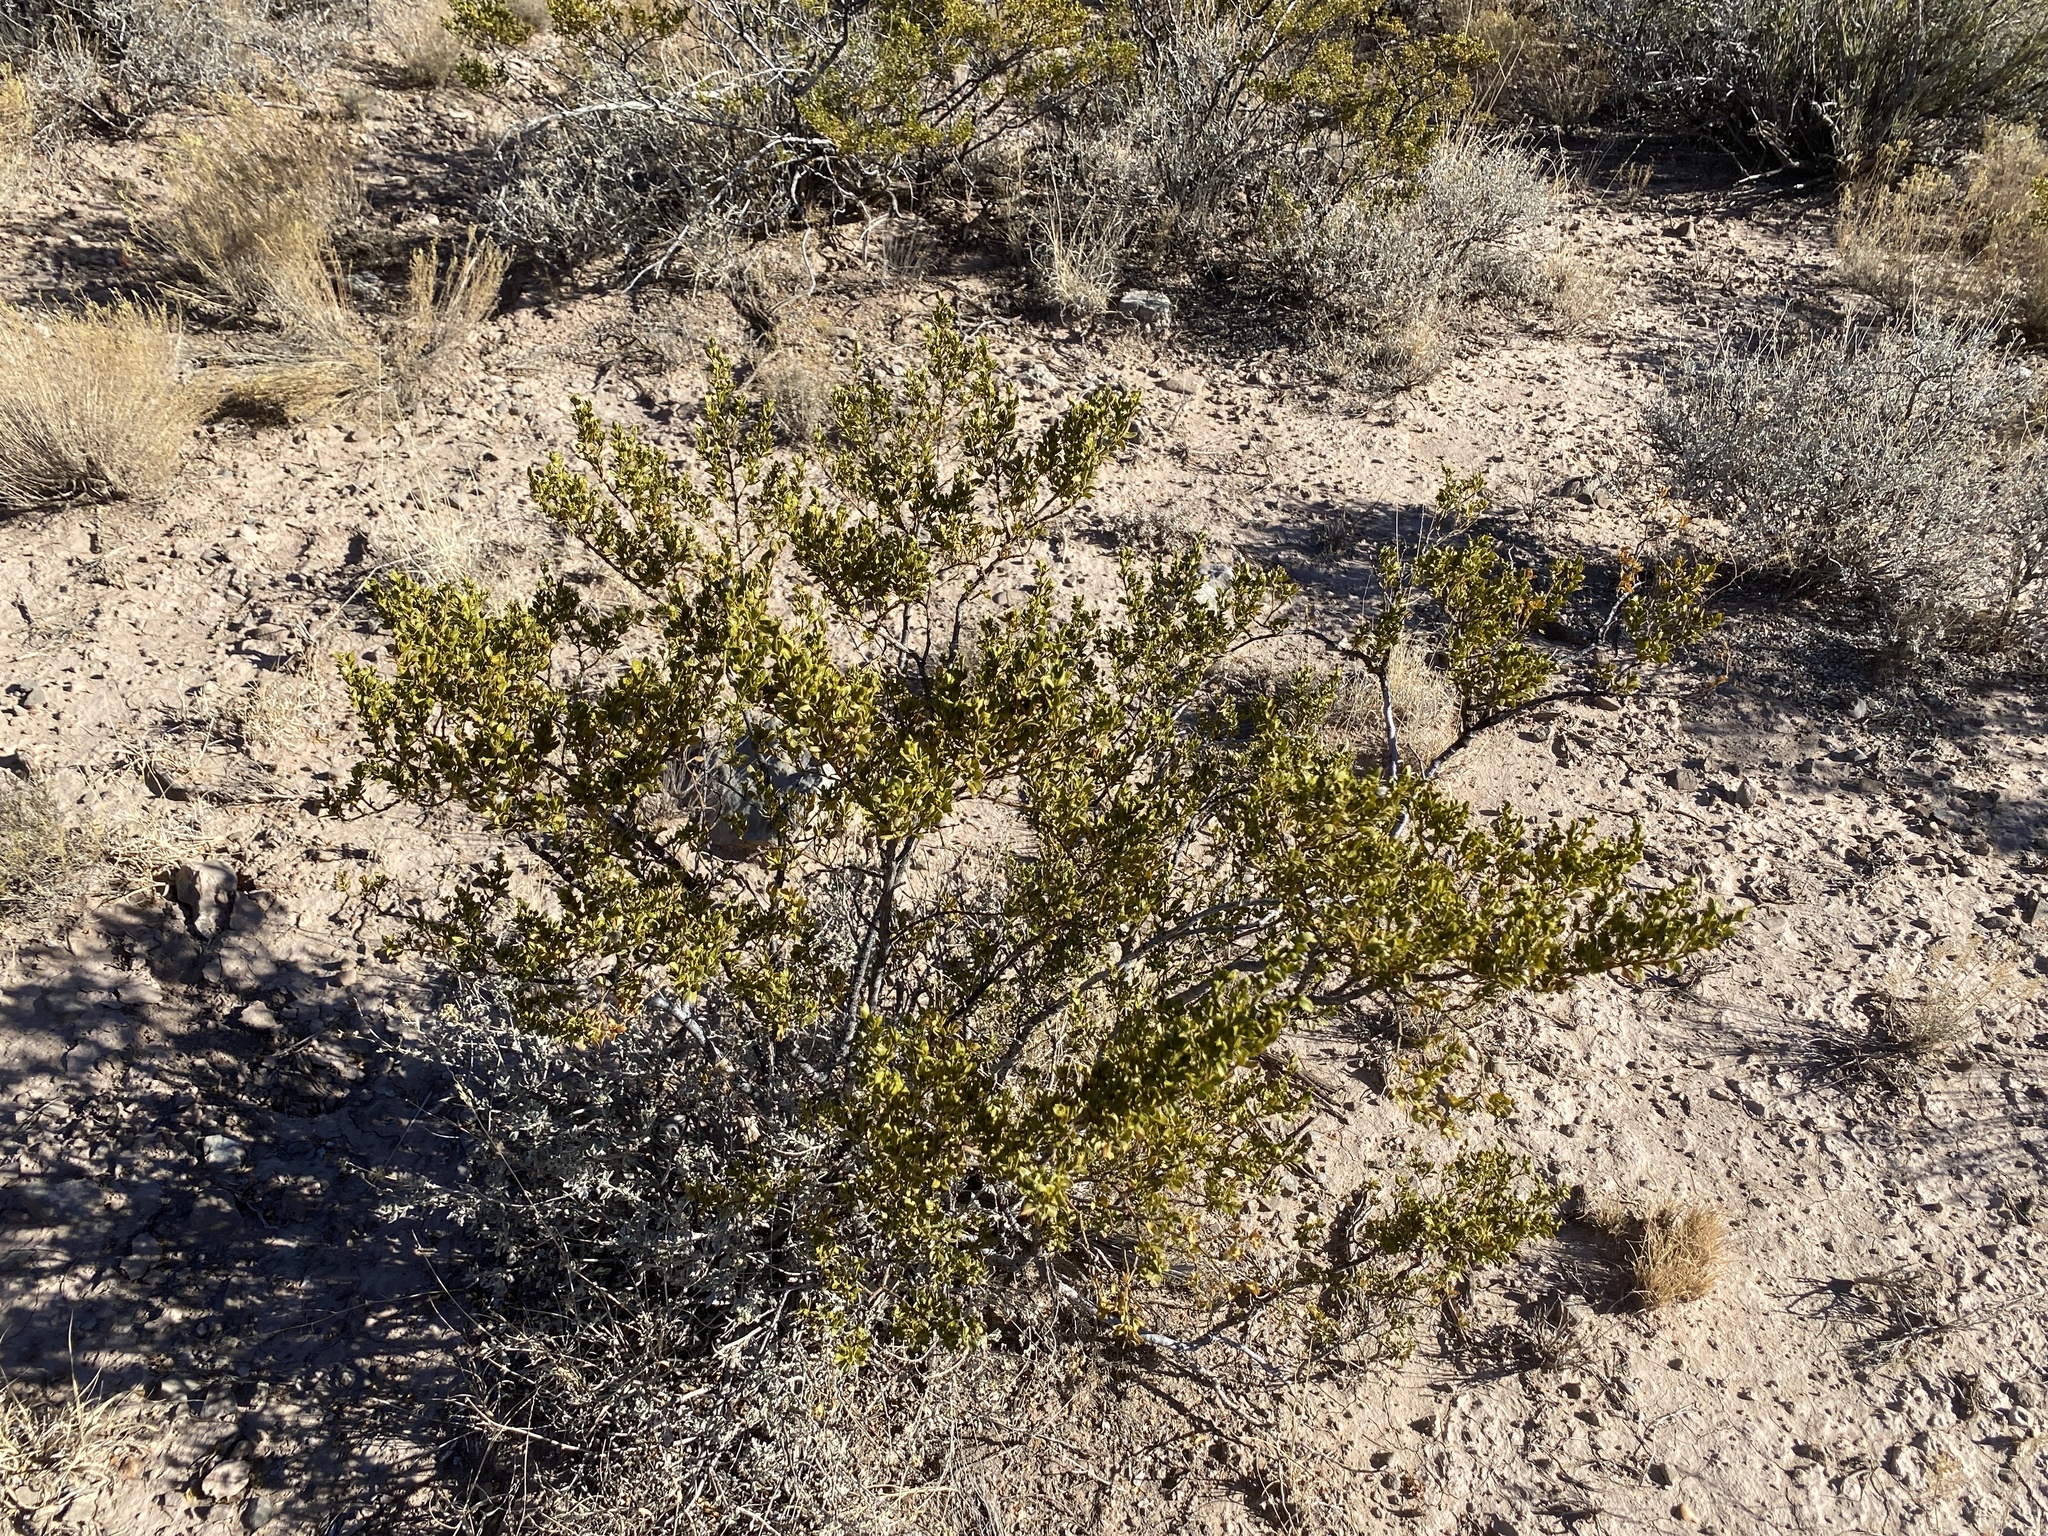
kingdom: Plantae
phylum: Tracheophyta
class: Magnoliopsida
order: Zygophyllales
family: Zygophyllaceae
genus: Larrea
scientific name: Larrea tridentata
